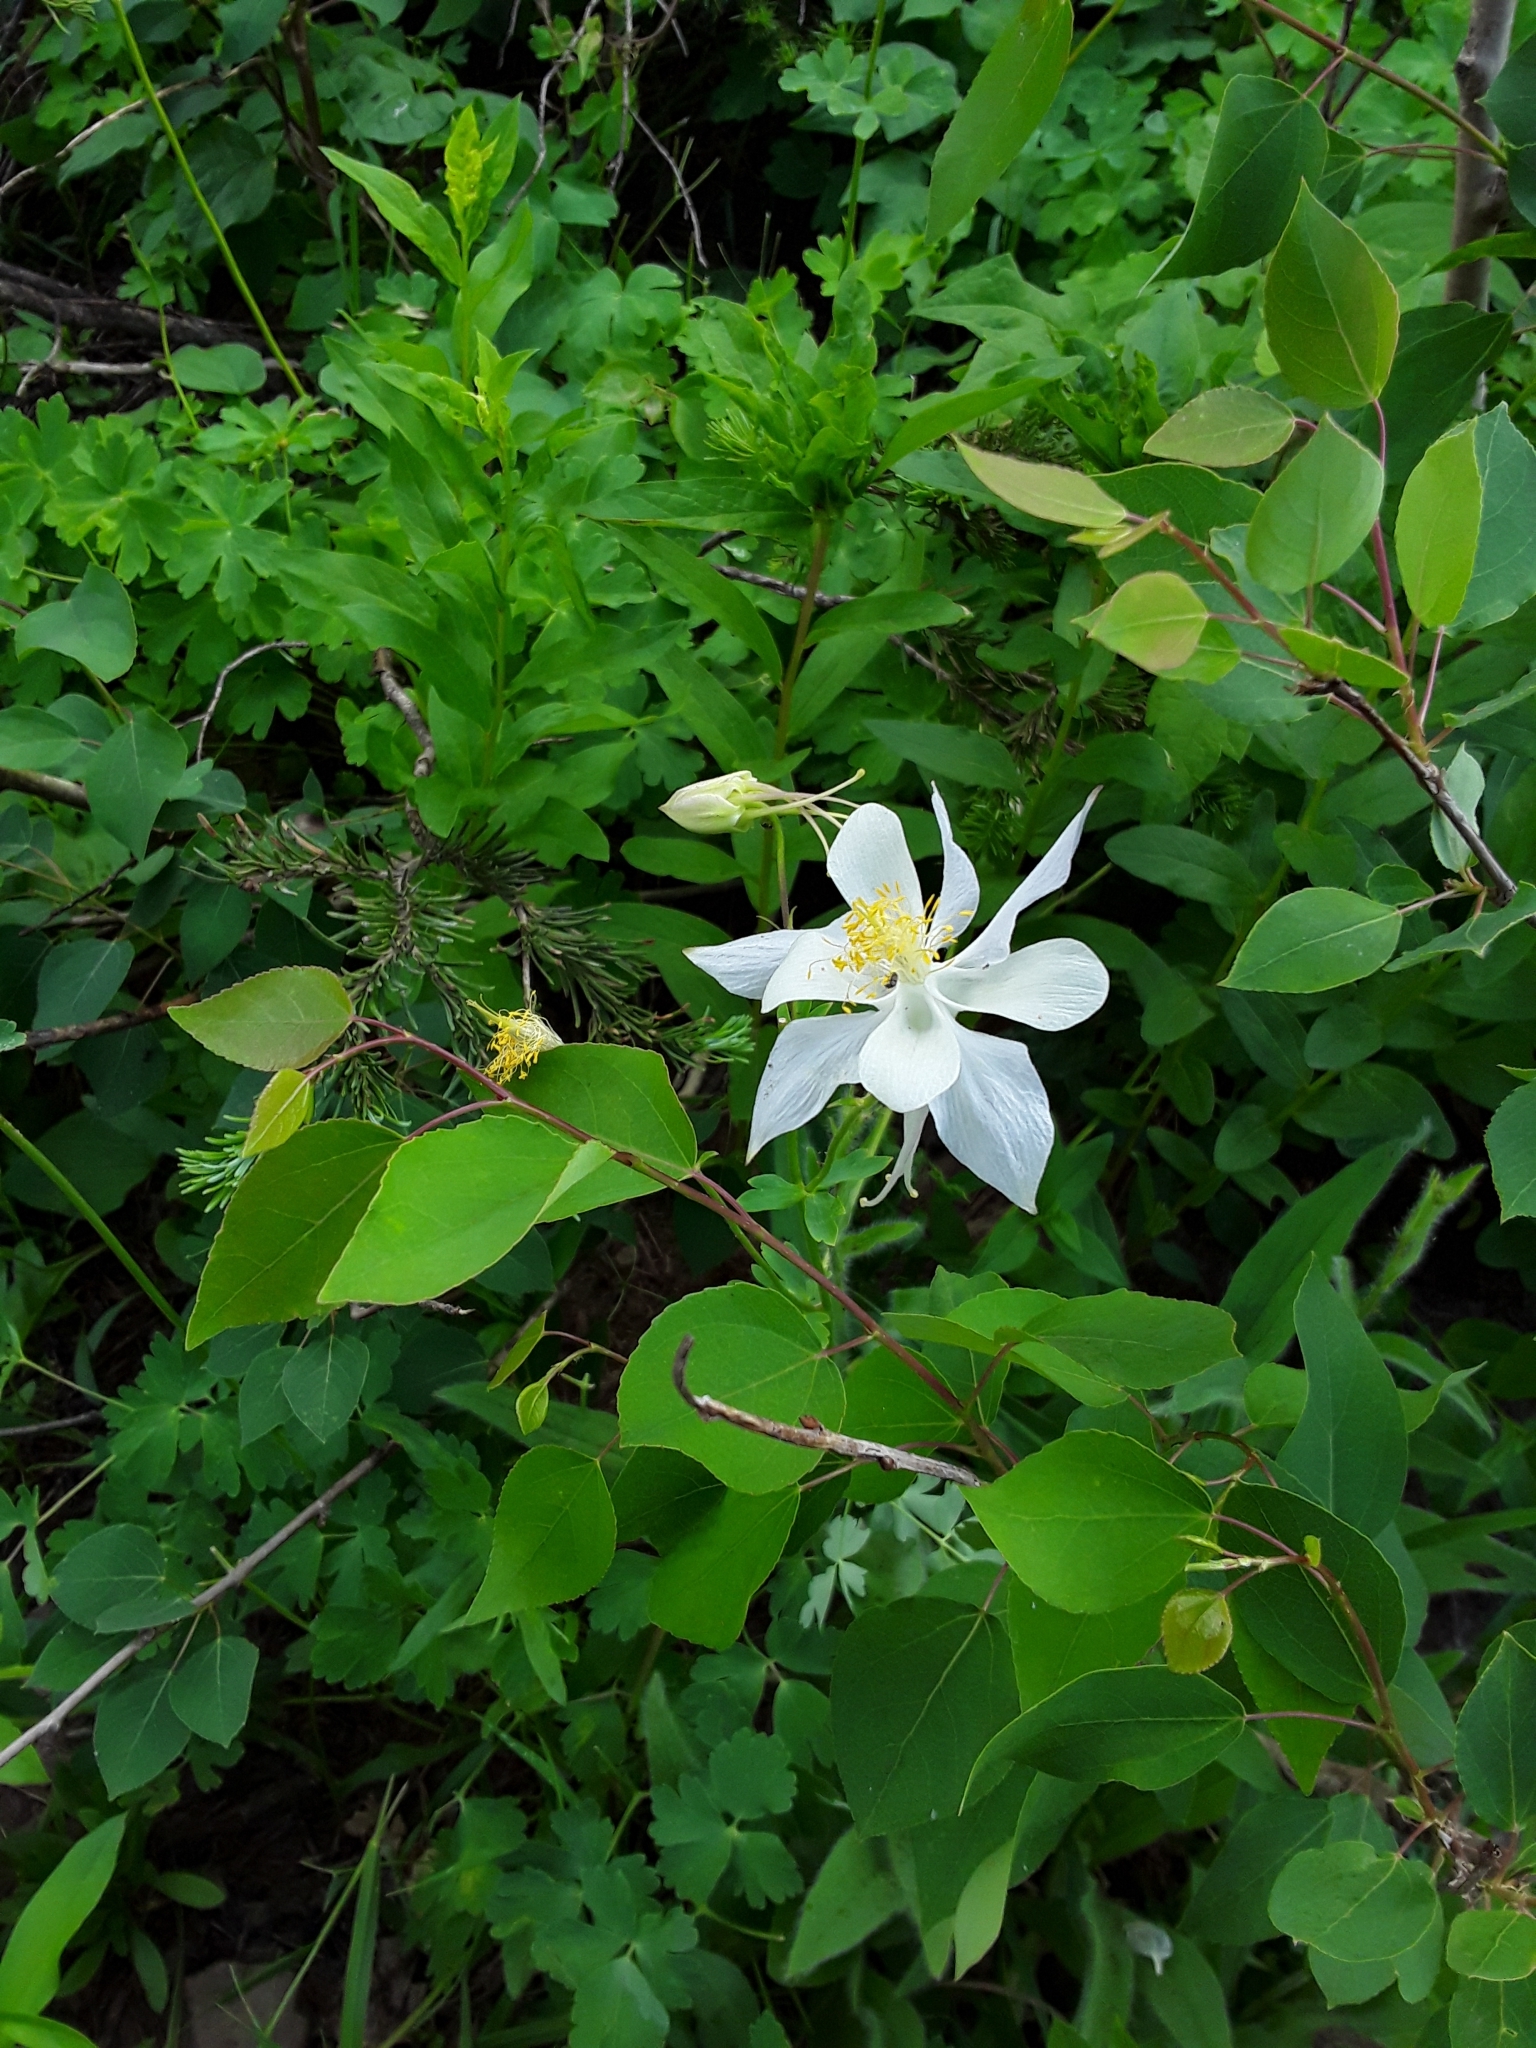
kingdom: Plantae
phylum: Tracheophyta
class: Magnoliopsida
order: Ranunculales
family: Ranunculaceae
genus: Aquilegia
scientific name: Aquilegia coerulea
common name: Rocky mountain columbine
